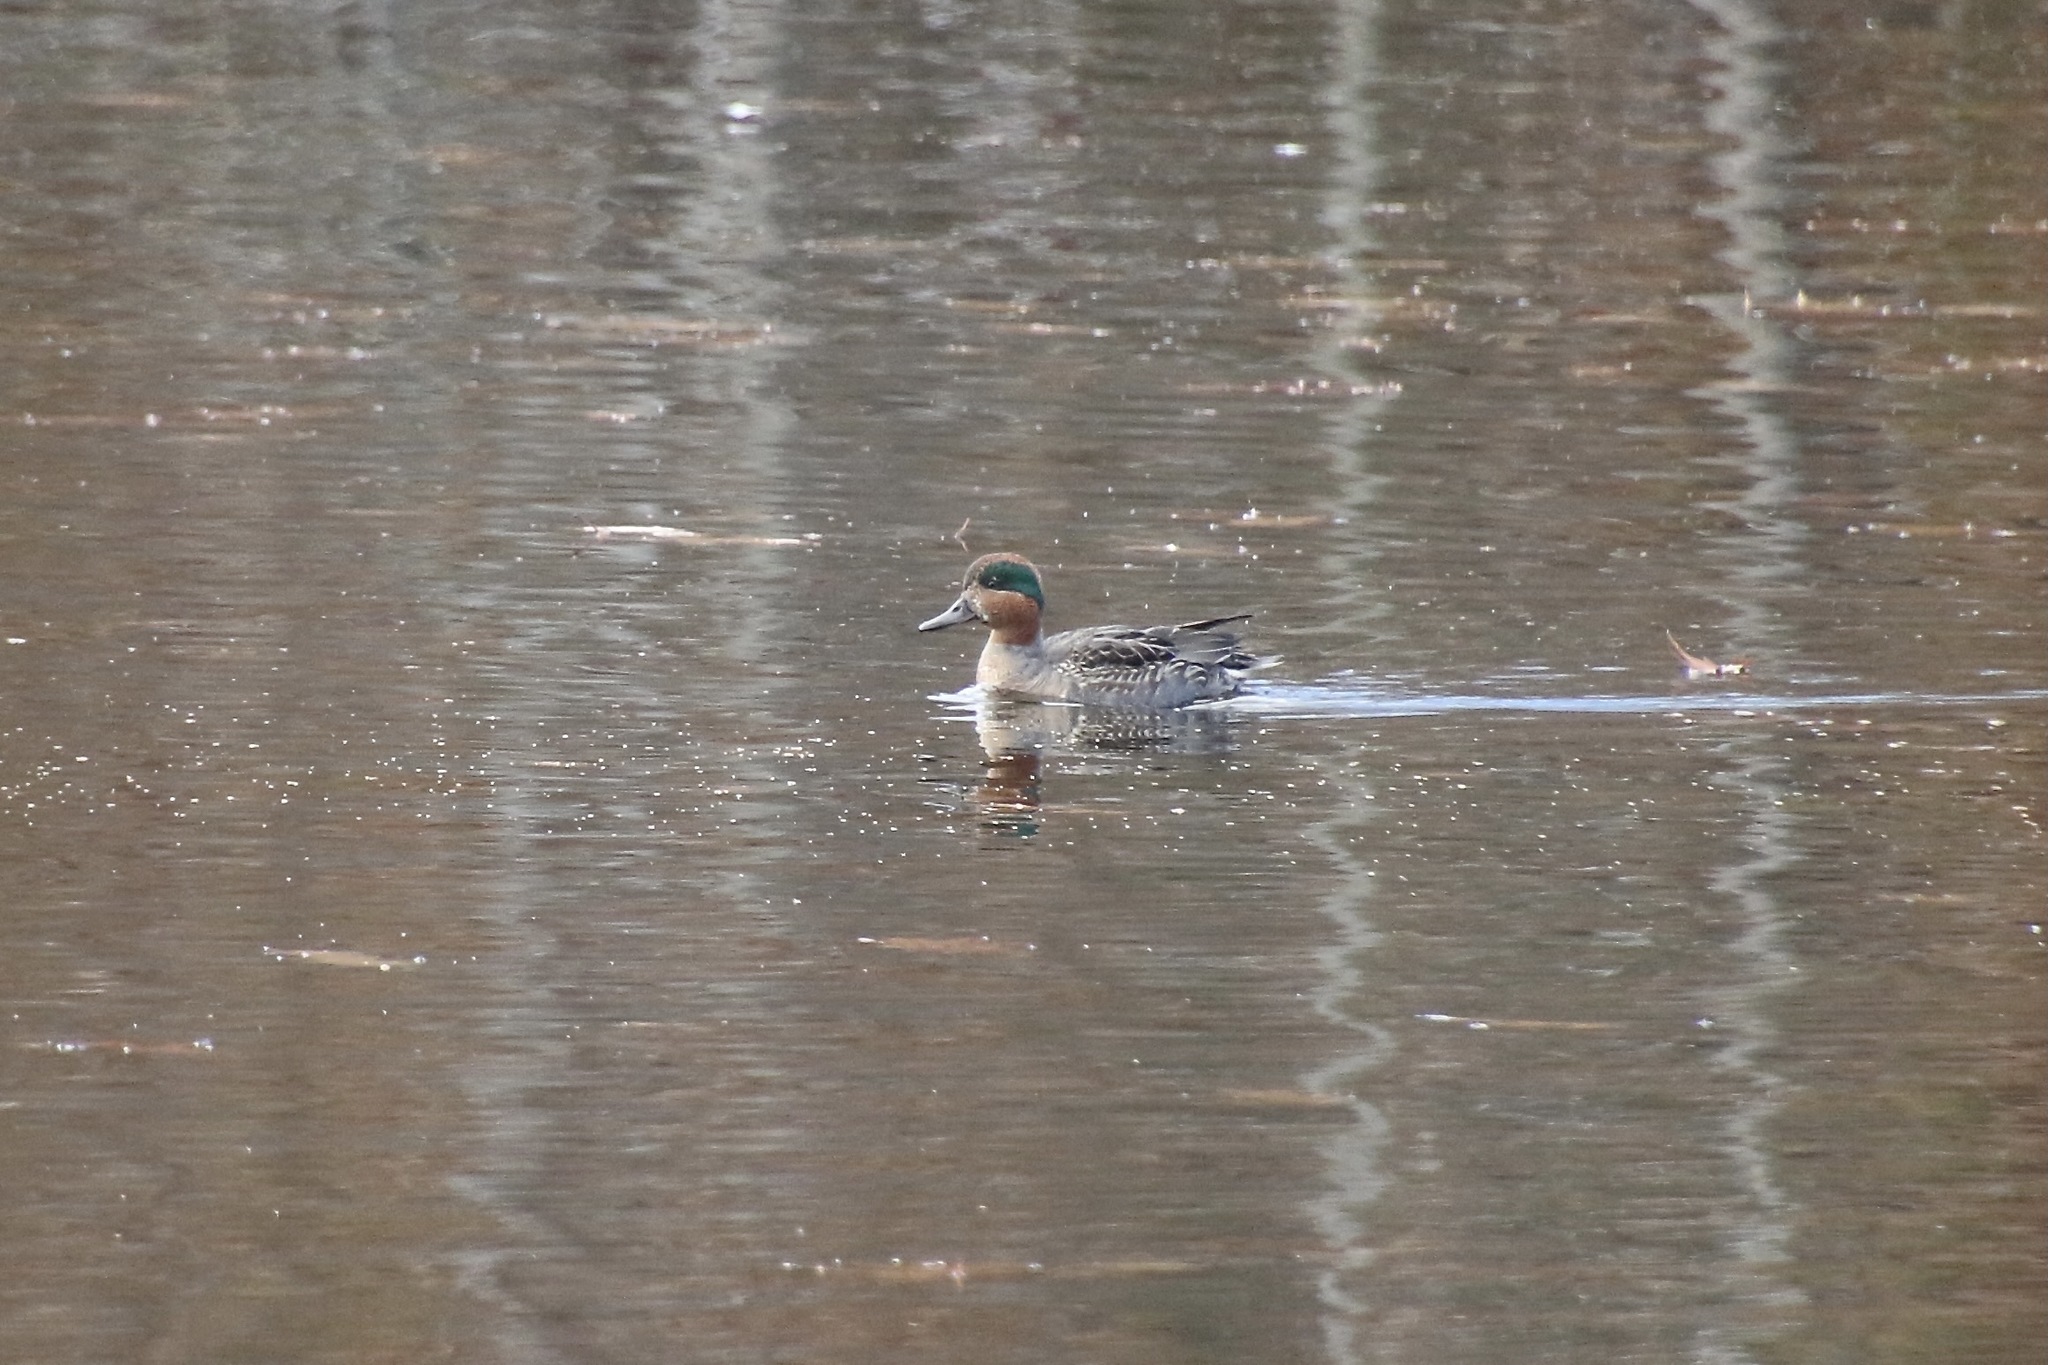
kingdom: Animalia
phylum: Chordata
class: Aves
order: Anseriformes
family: Anatidae
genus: Anas
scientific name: Anas crecca
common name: Eurasian teal
